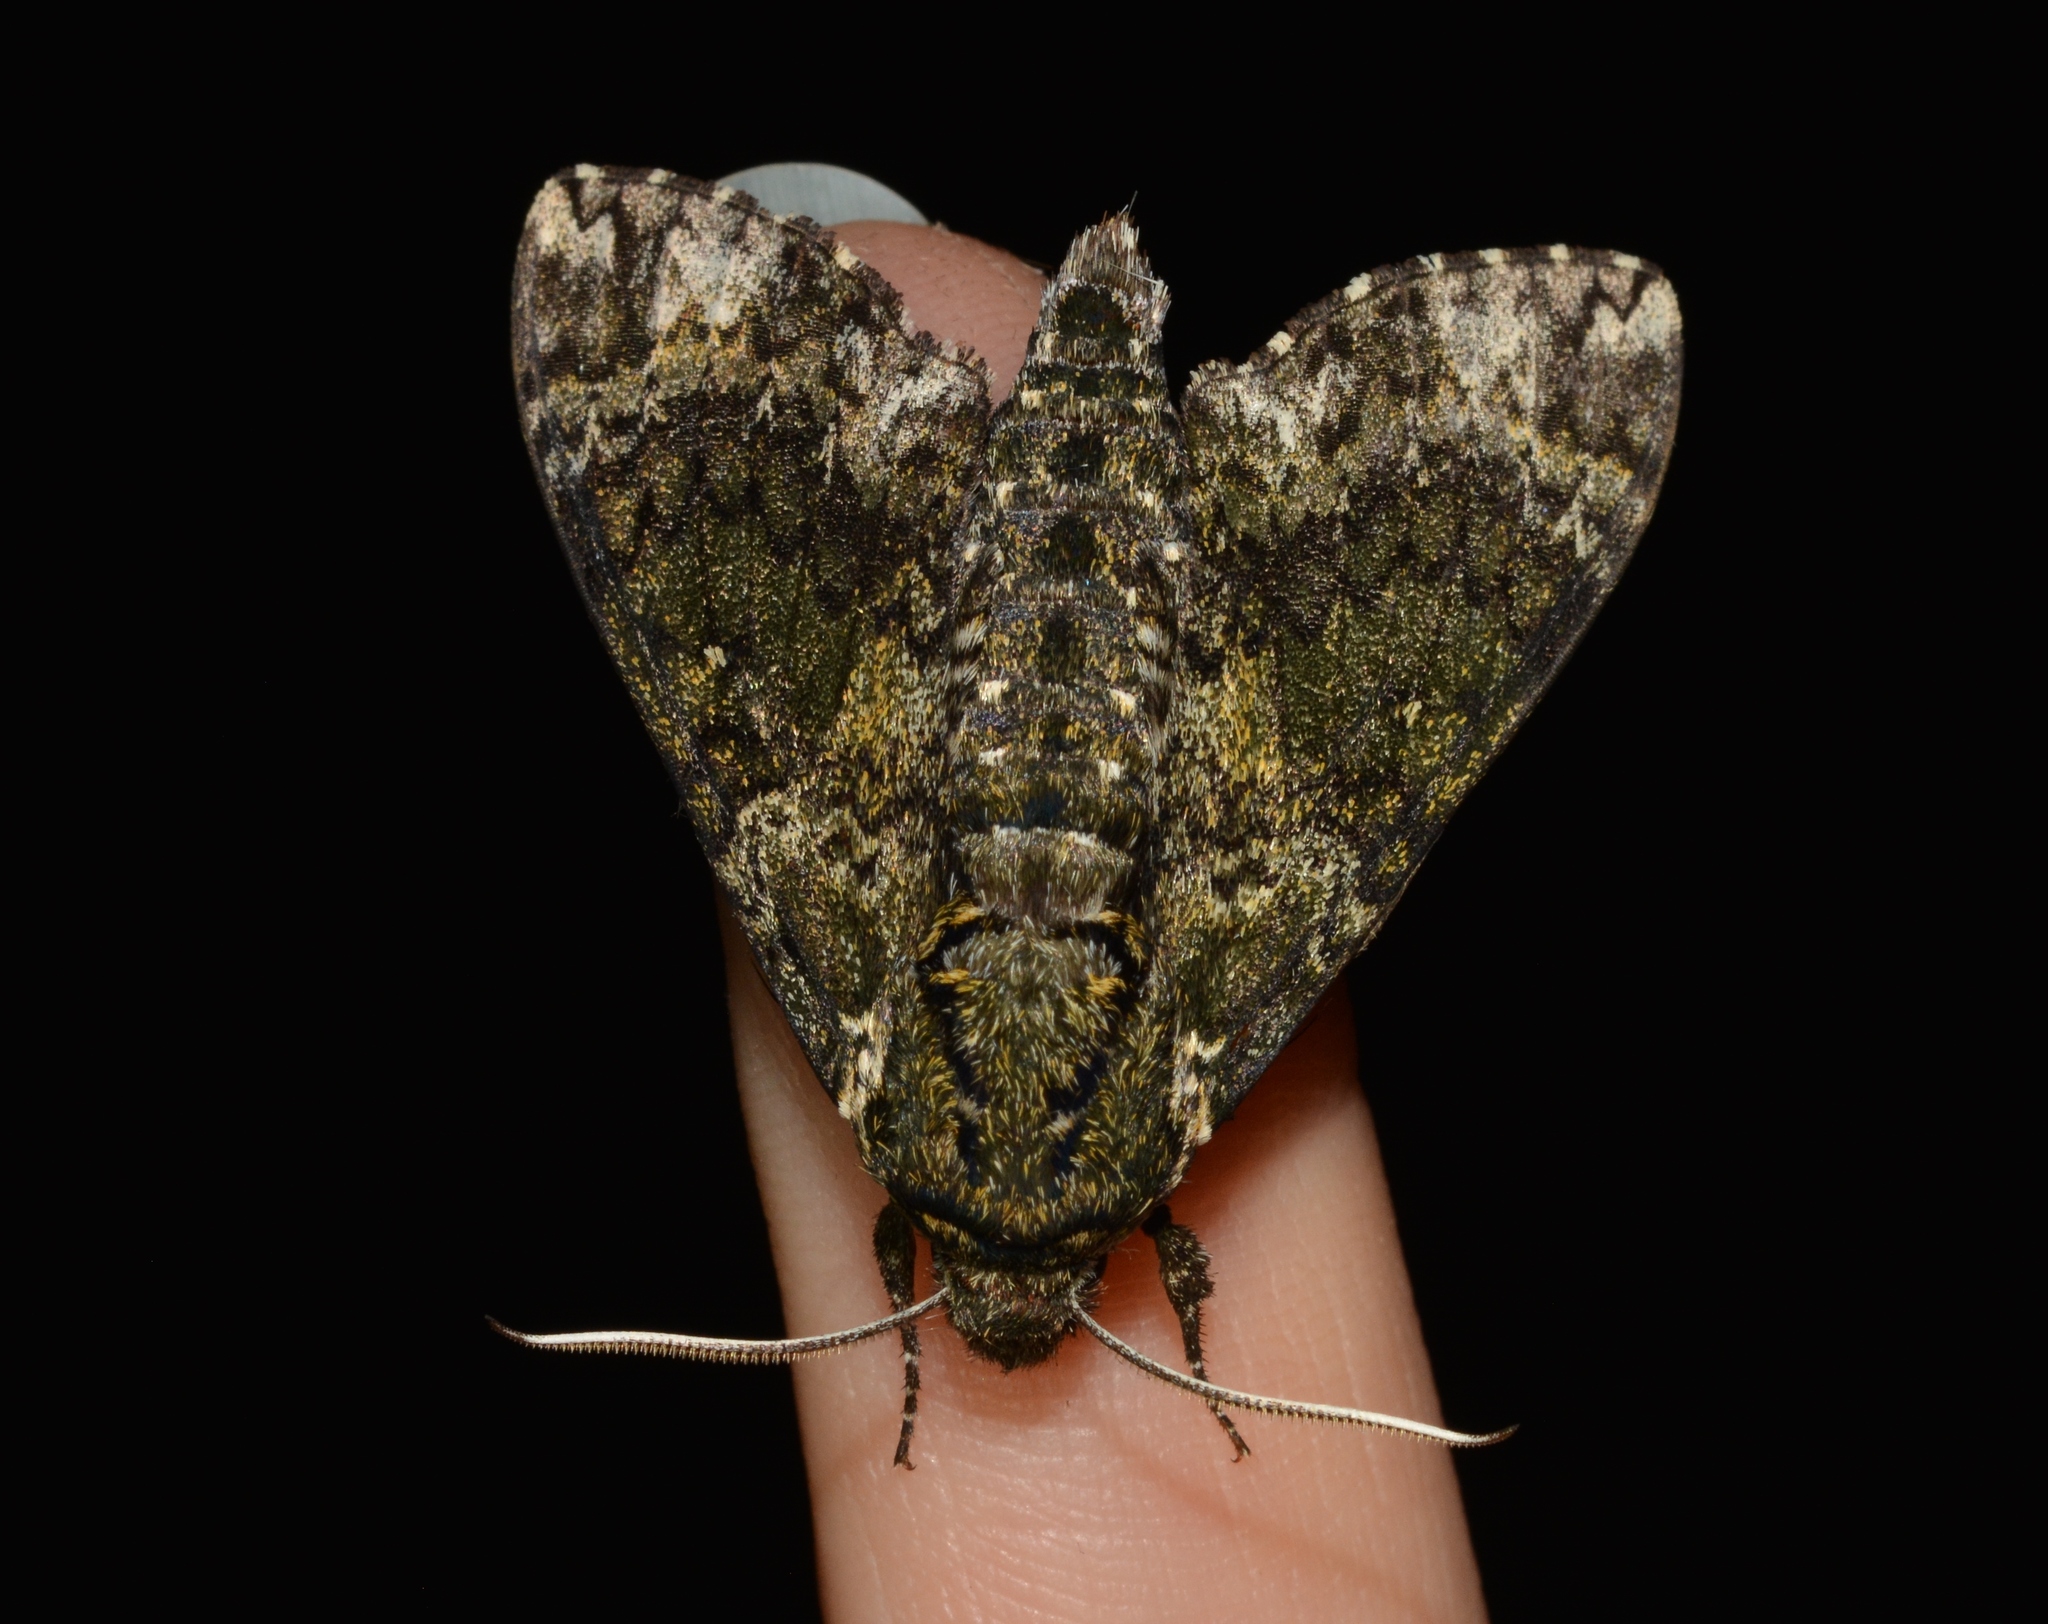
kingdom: Animalia
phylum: Arthropoda
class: Insecta
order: Lepidoptera
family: Sphingidae
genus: Dolba
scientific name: Dolba hyloeus
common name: Pawpaw sphinx
